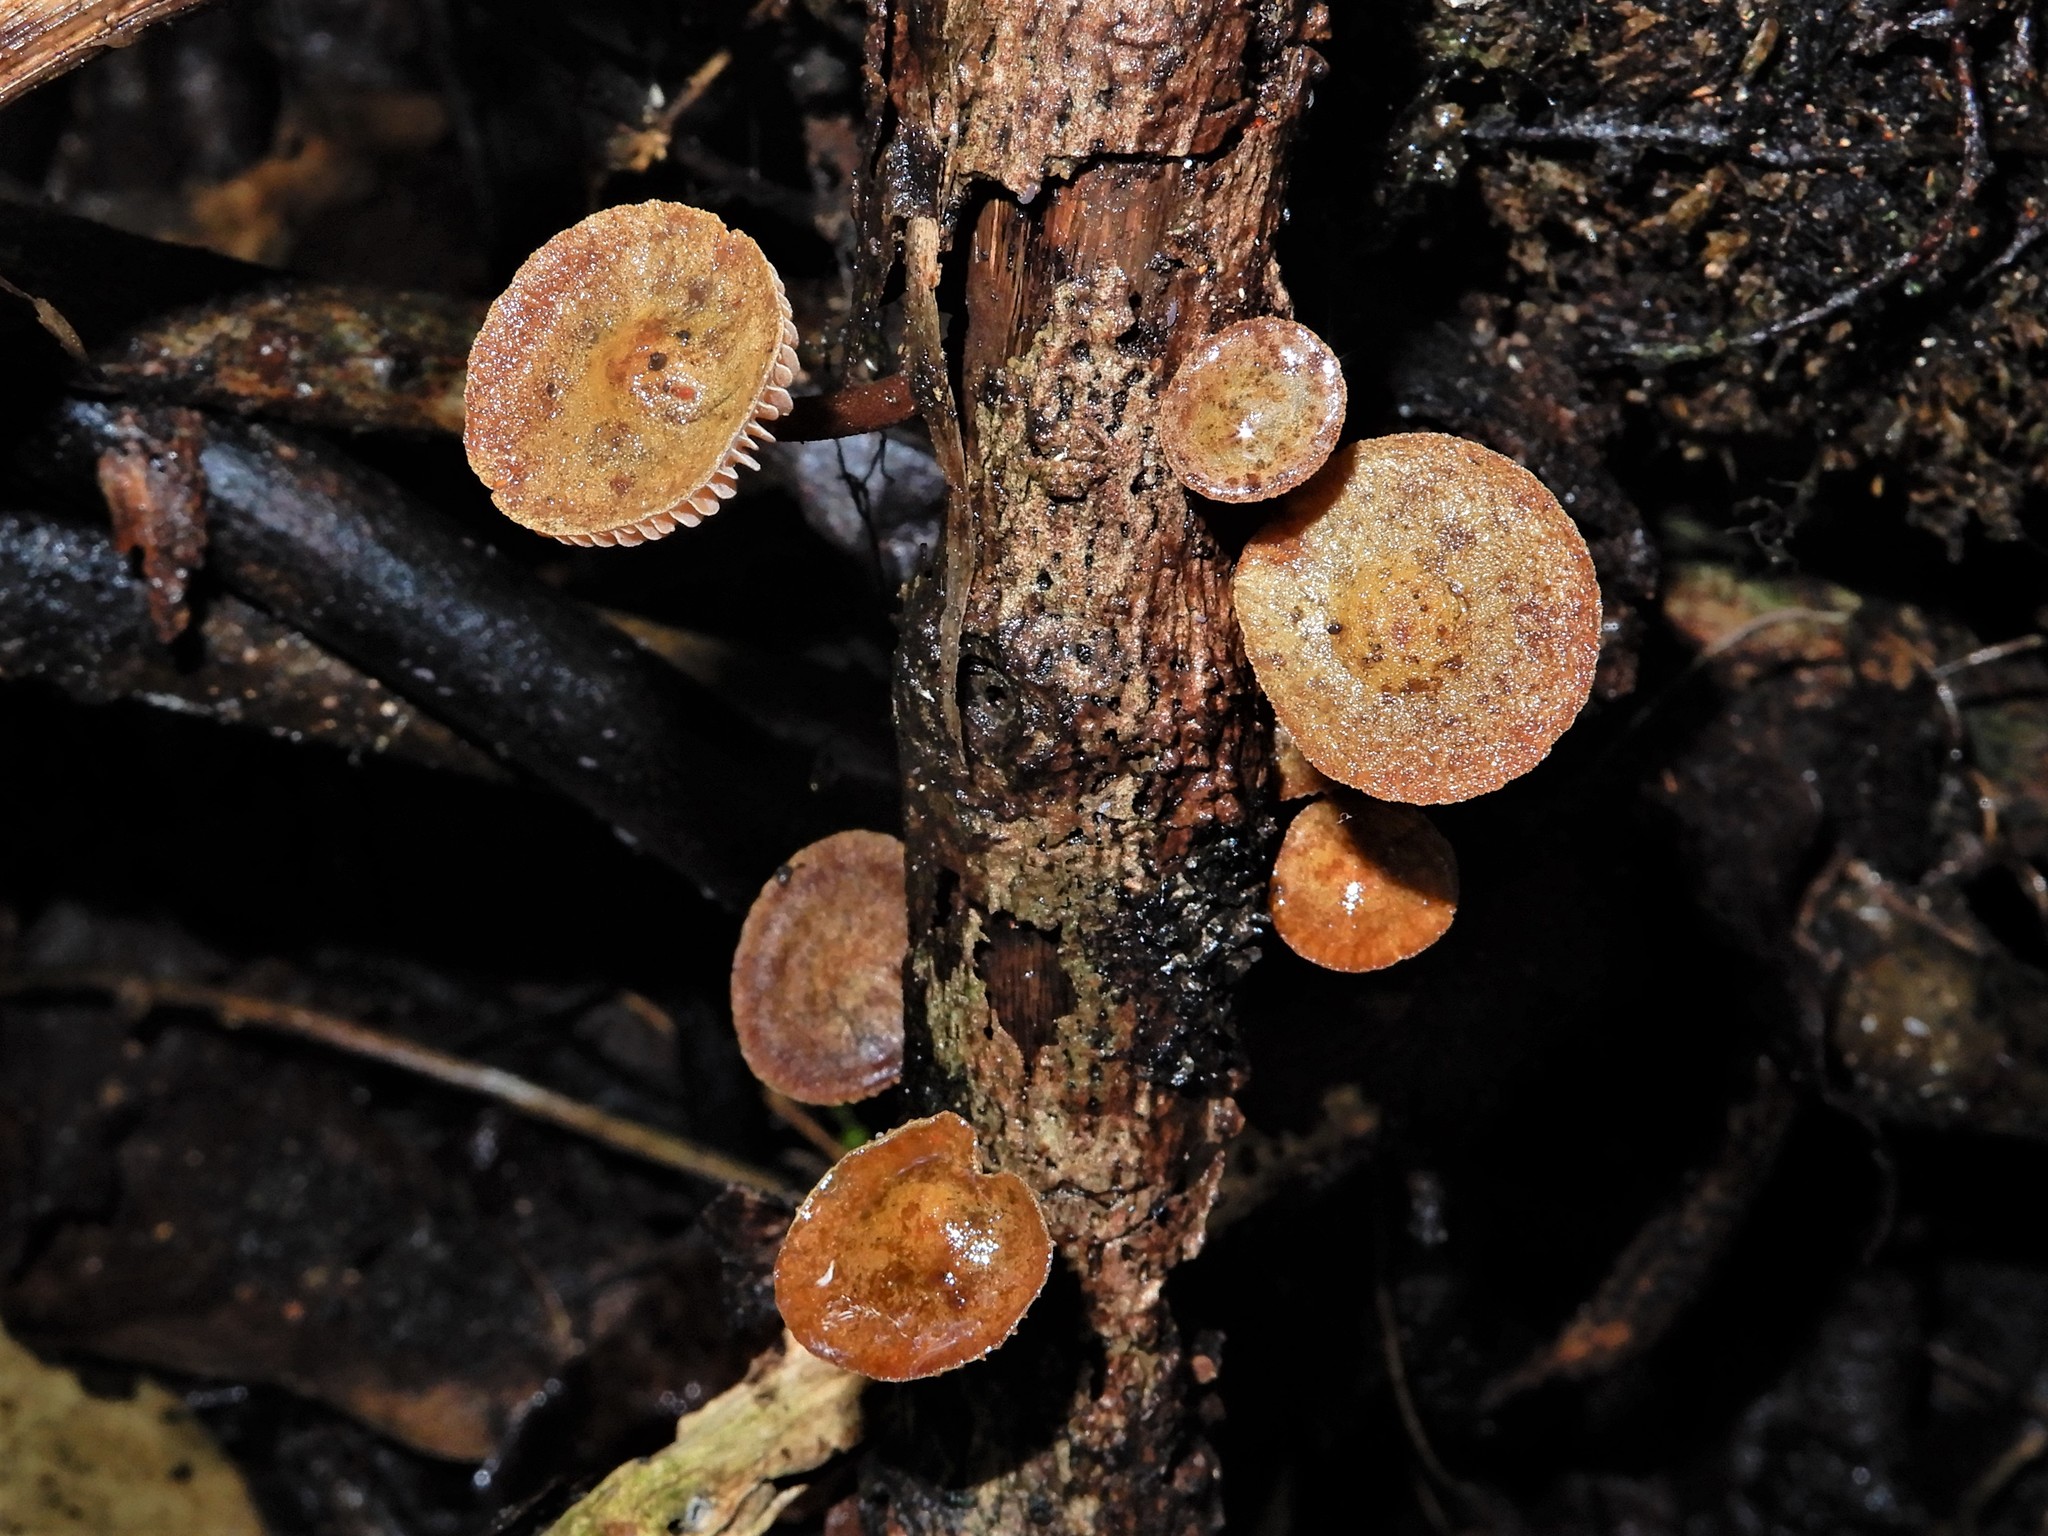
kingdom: Fungi
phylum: Basidiomycota
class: Agaricomycetes
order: Agaricales
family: Mycenaceae
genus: Heimiomyces
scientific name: Heimiomyces atrofulvus
